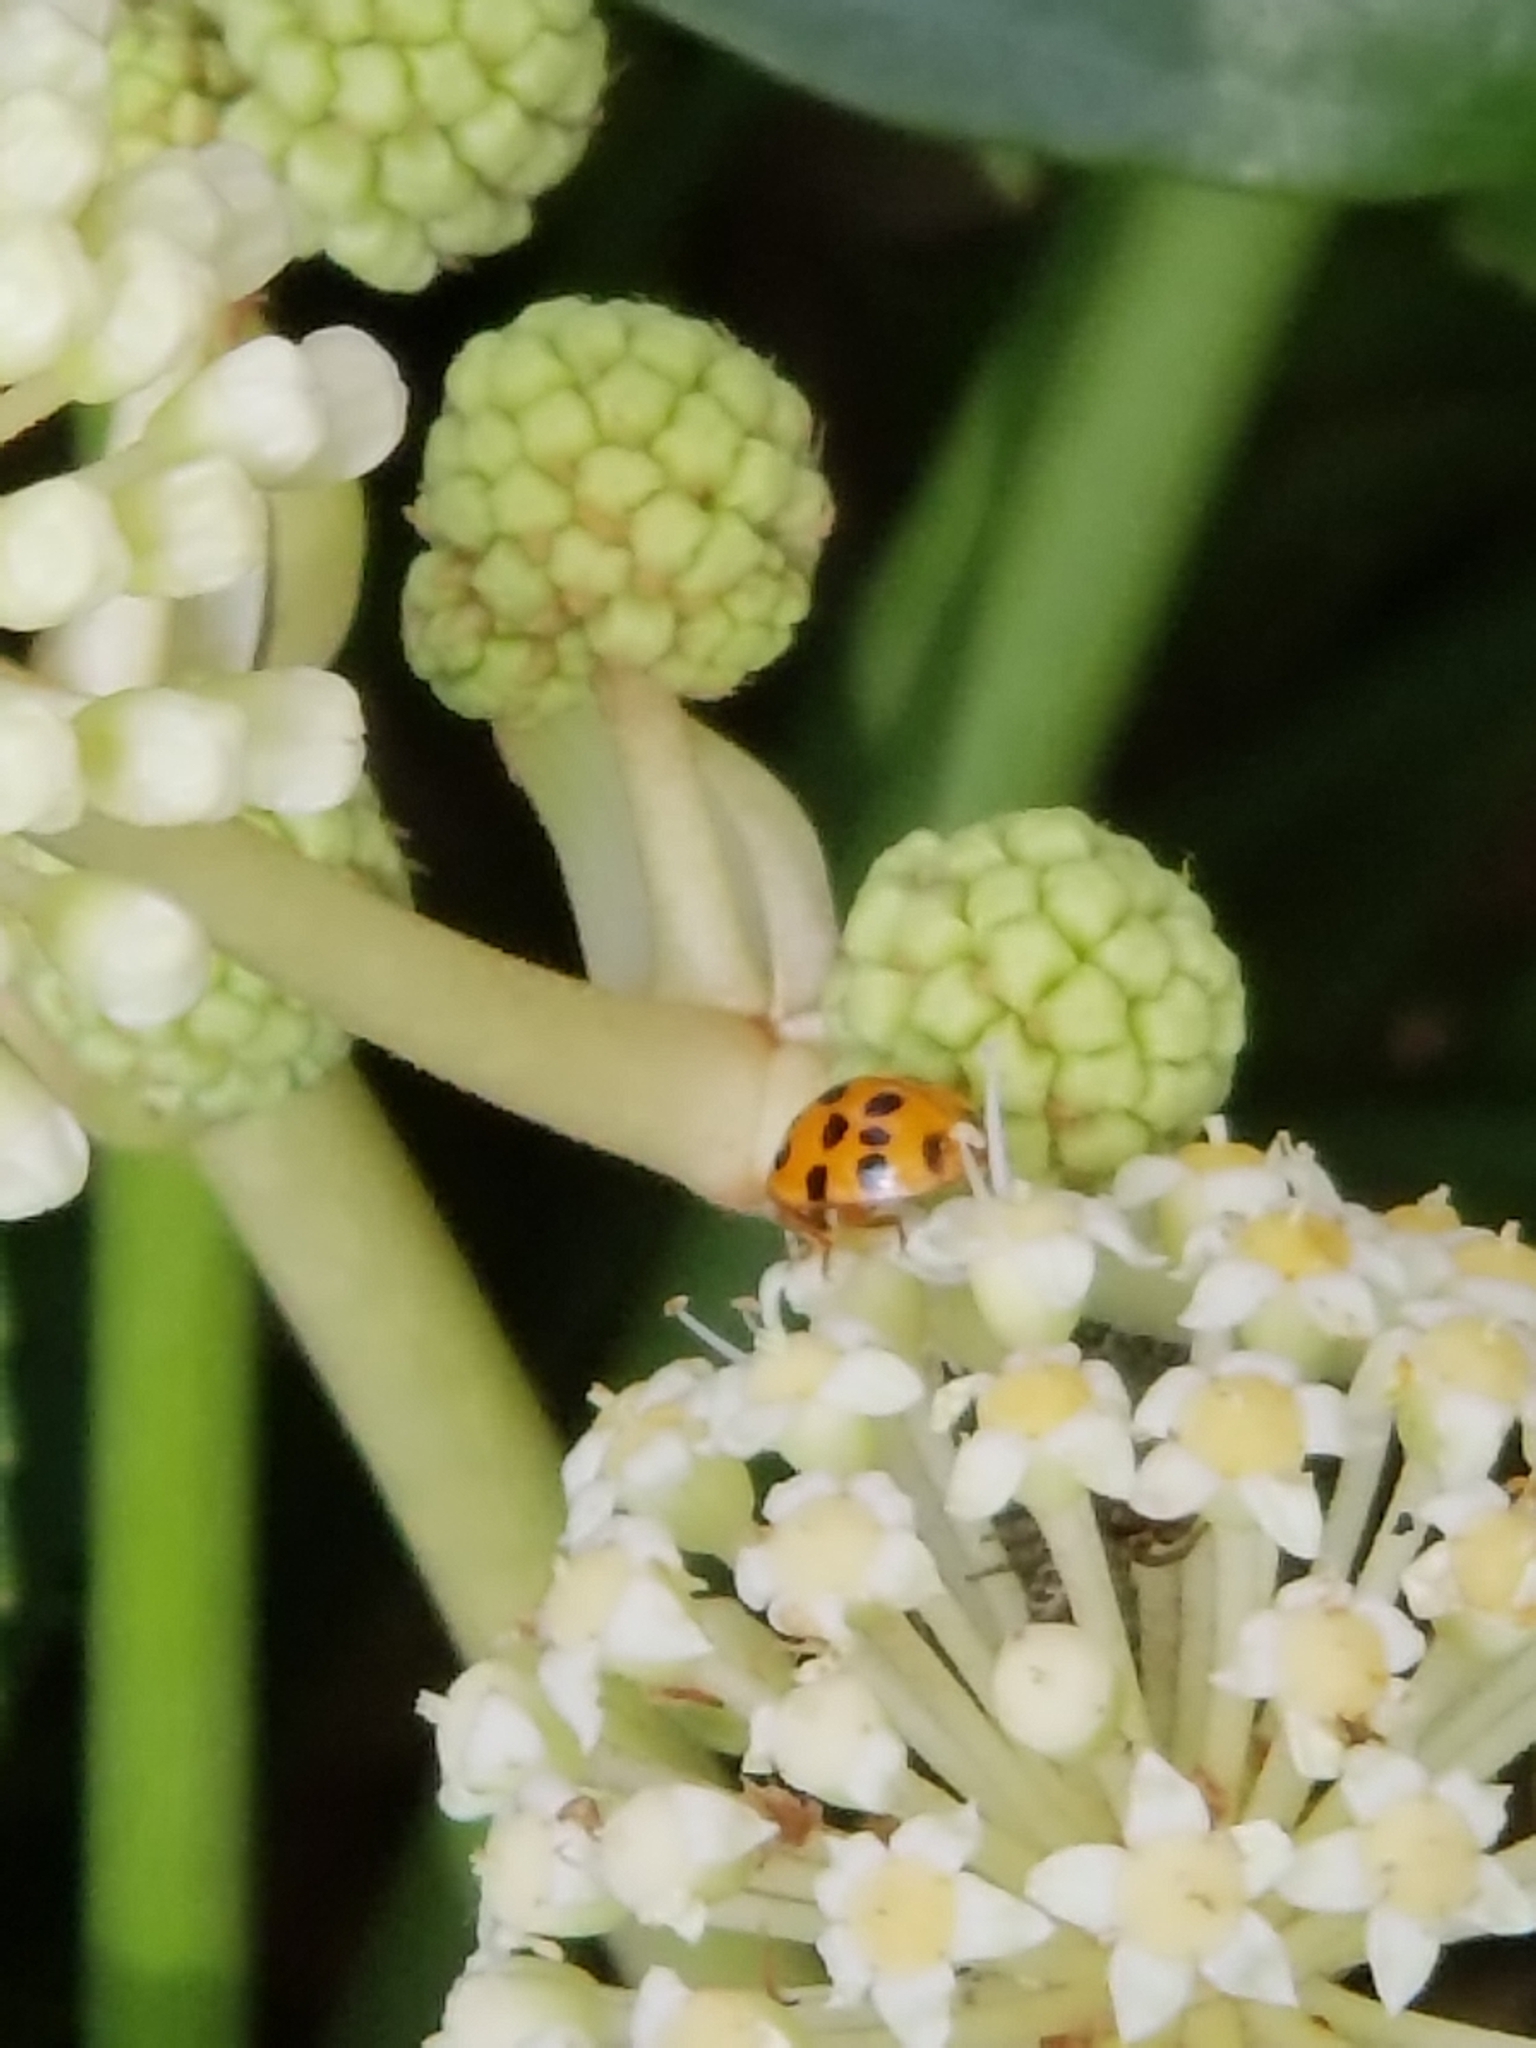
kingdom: Animalia
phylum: Arthropoda
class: Insecta
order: Coleoptera
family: Coccinellidae
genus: Harmonia
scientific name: Harmonia axyridis
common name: Harlequin ladybird
